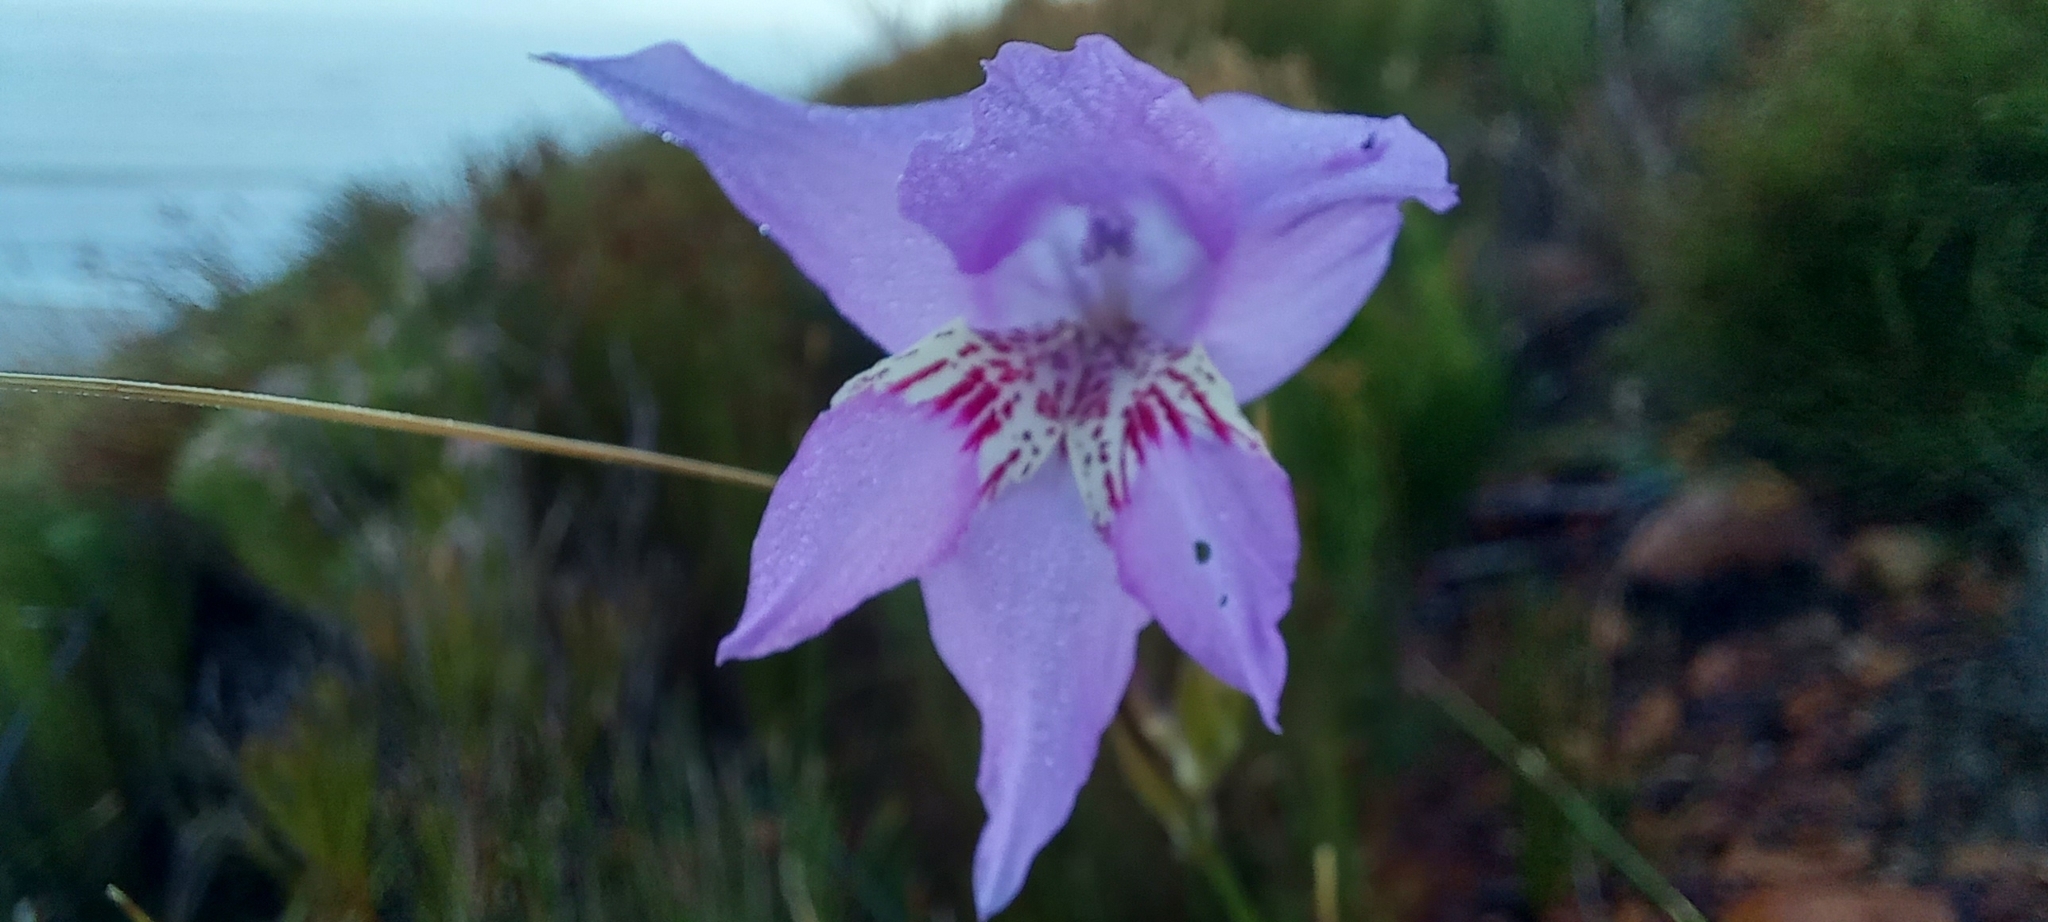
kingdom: Plantae
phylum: Tracheophyta
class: Liliopsida
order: Asparagales
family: Iridaceae
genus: Gladiolus
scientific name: Gladiolus blommesteinii
